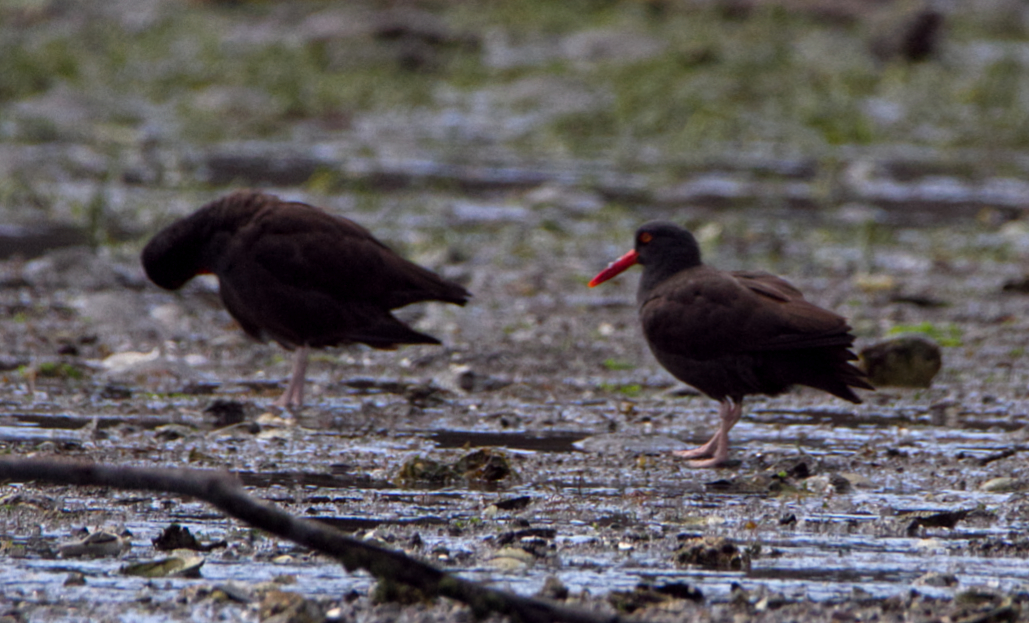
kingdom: Animalia
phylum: Chordata
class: Aves
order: Charadriiformes
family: Haematopodidae
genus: Haematopus
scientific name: Haematopus bachmani
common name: Black oystercatcher
